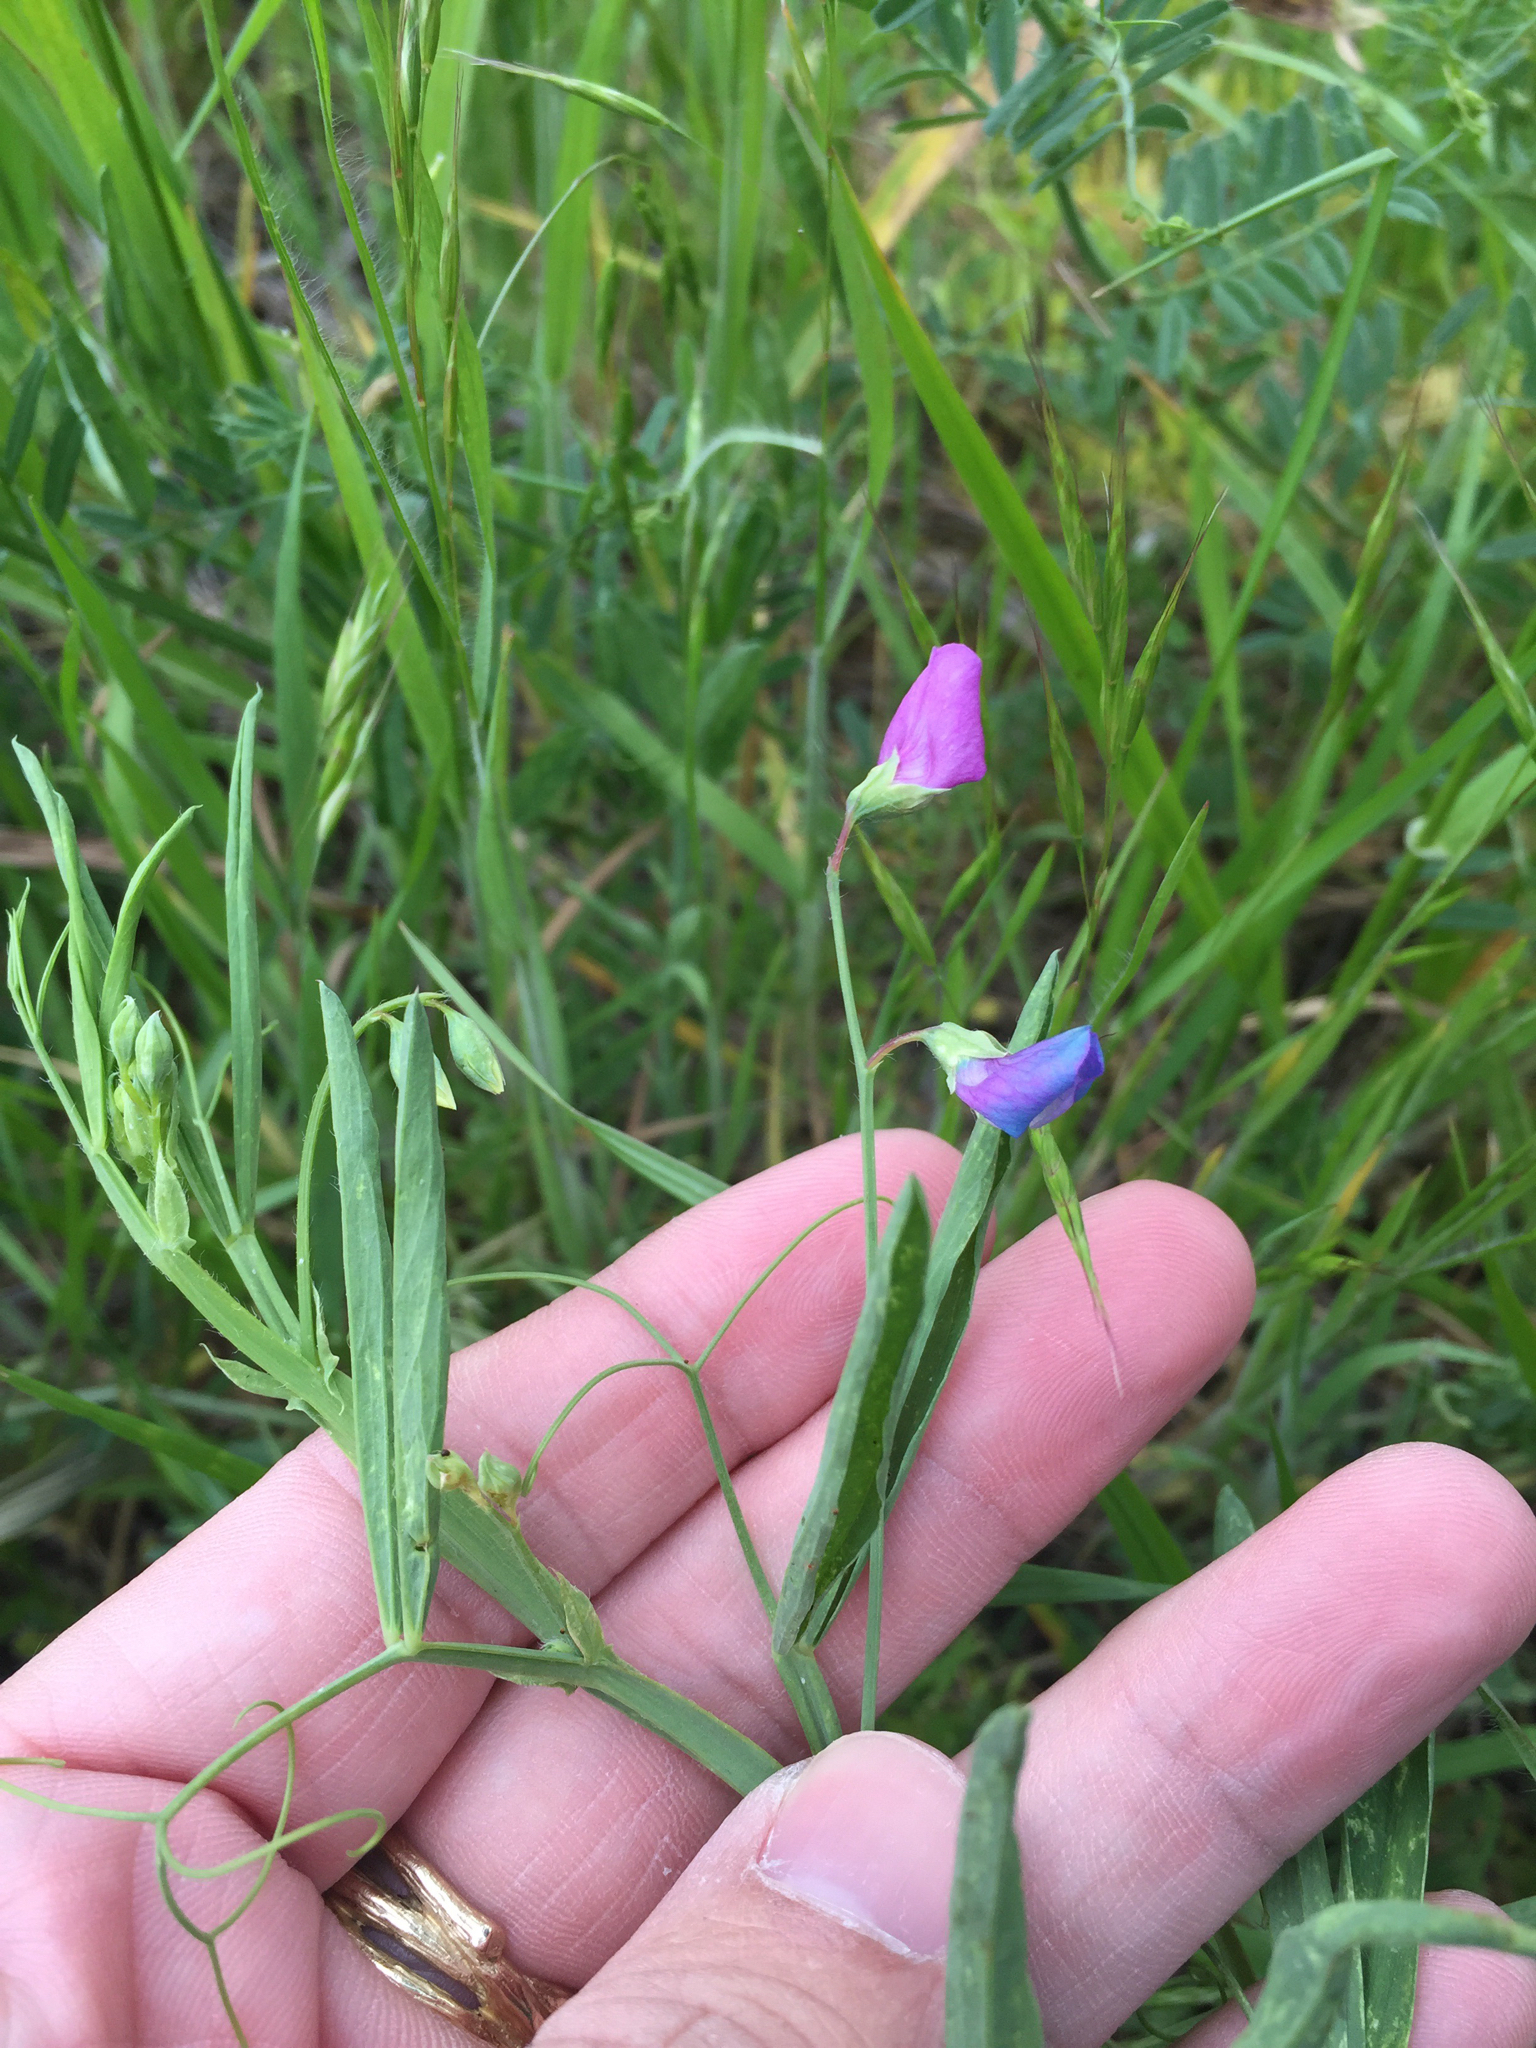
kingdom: Plantae
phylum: Tracheophyta
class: Magnoliopsida
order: Fabales
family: Fabaceae
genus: Lathyrus
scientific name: Lathyrus hirsutus
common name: Hairy vetchling
